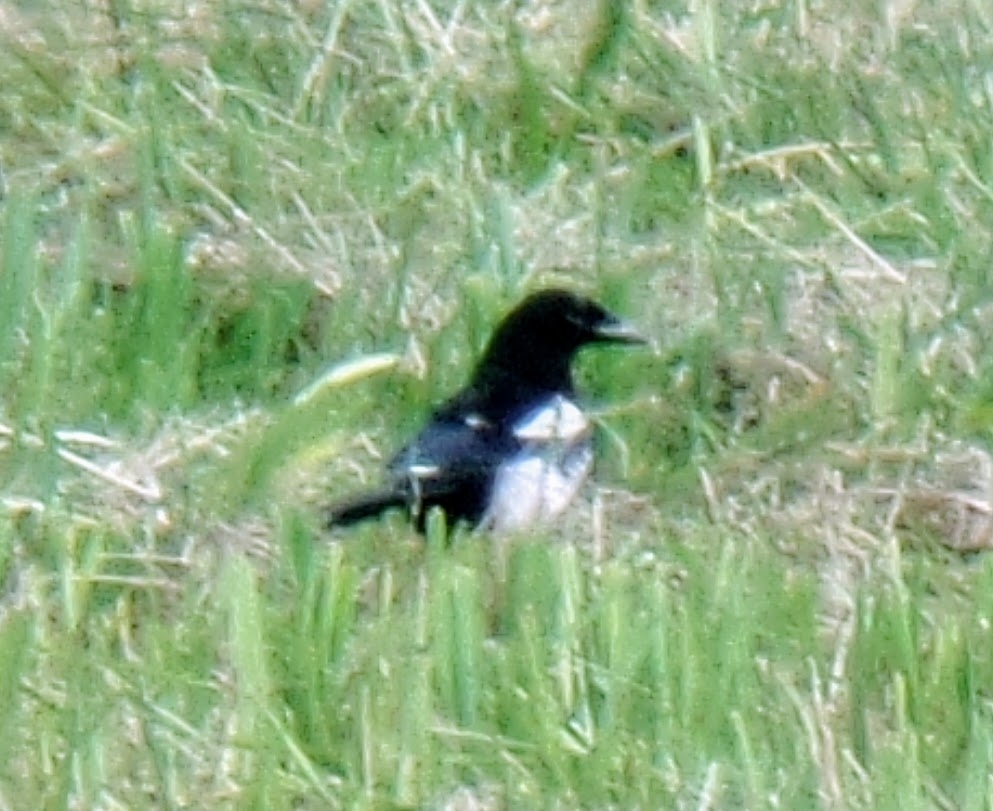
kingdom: Animalia
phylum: Chordata
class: Aves
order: Passeriformes
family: Corvidae
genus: Pica
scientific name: Pica pica
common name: Eurasian magpie
